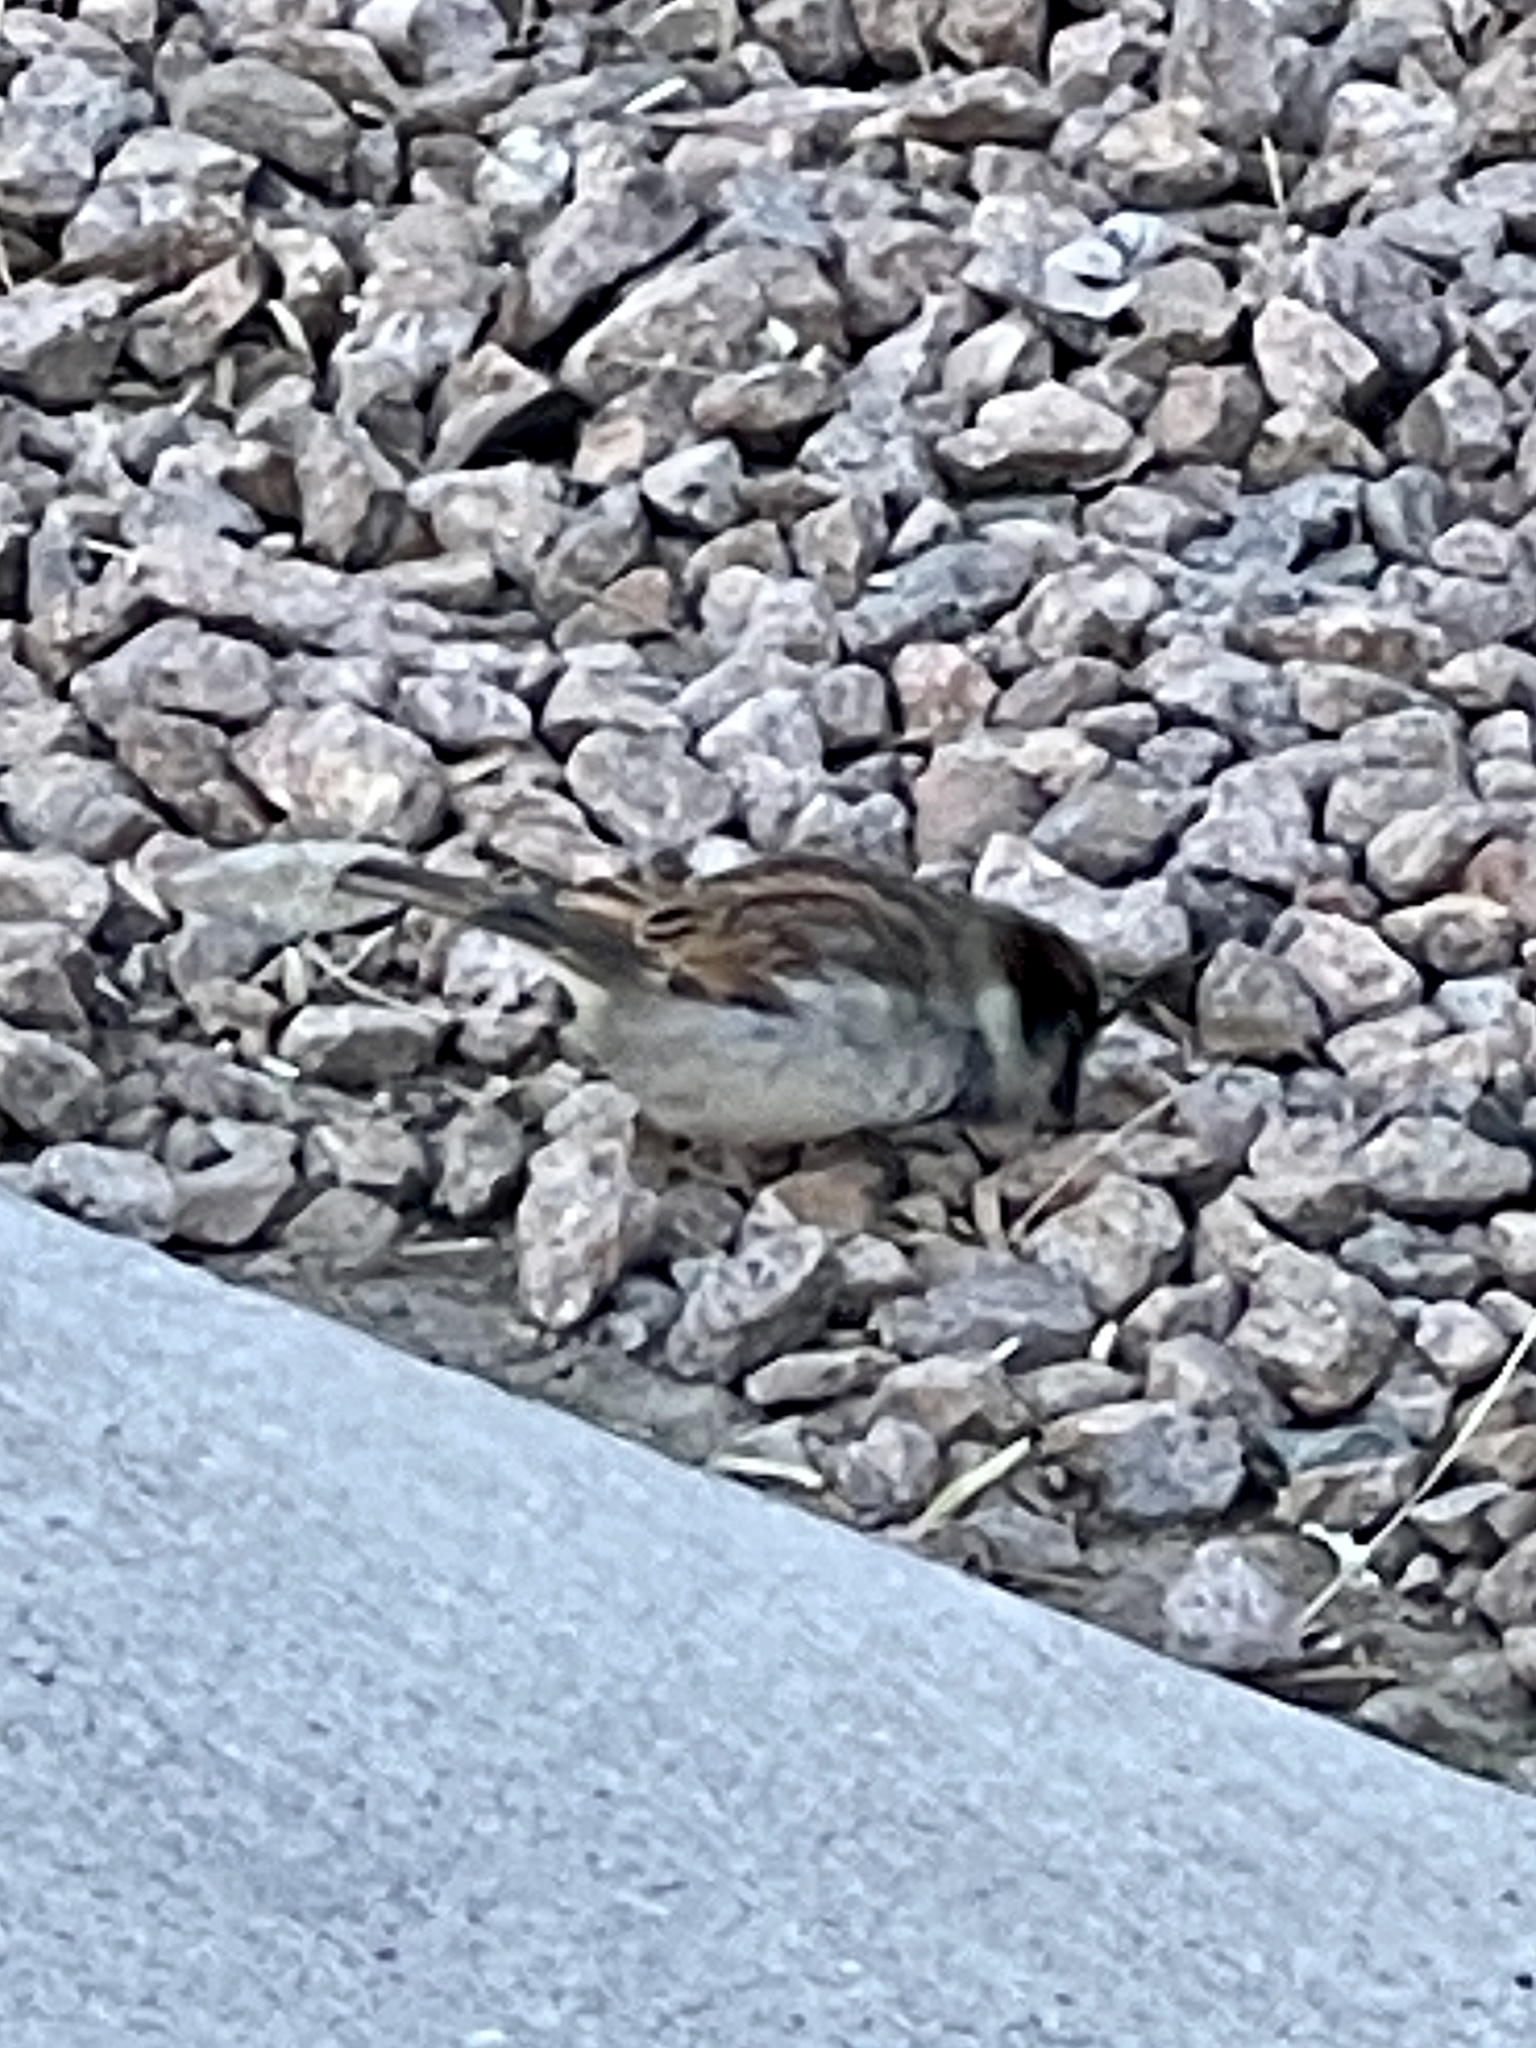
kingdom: Animalia
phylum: Chordata
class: Aves
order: Passeriformes
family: Passeridae
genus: Passer
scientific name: Passer domesticus
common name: House sparrow
